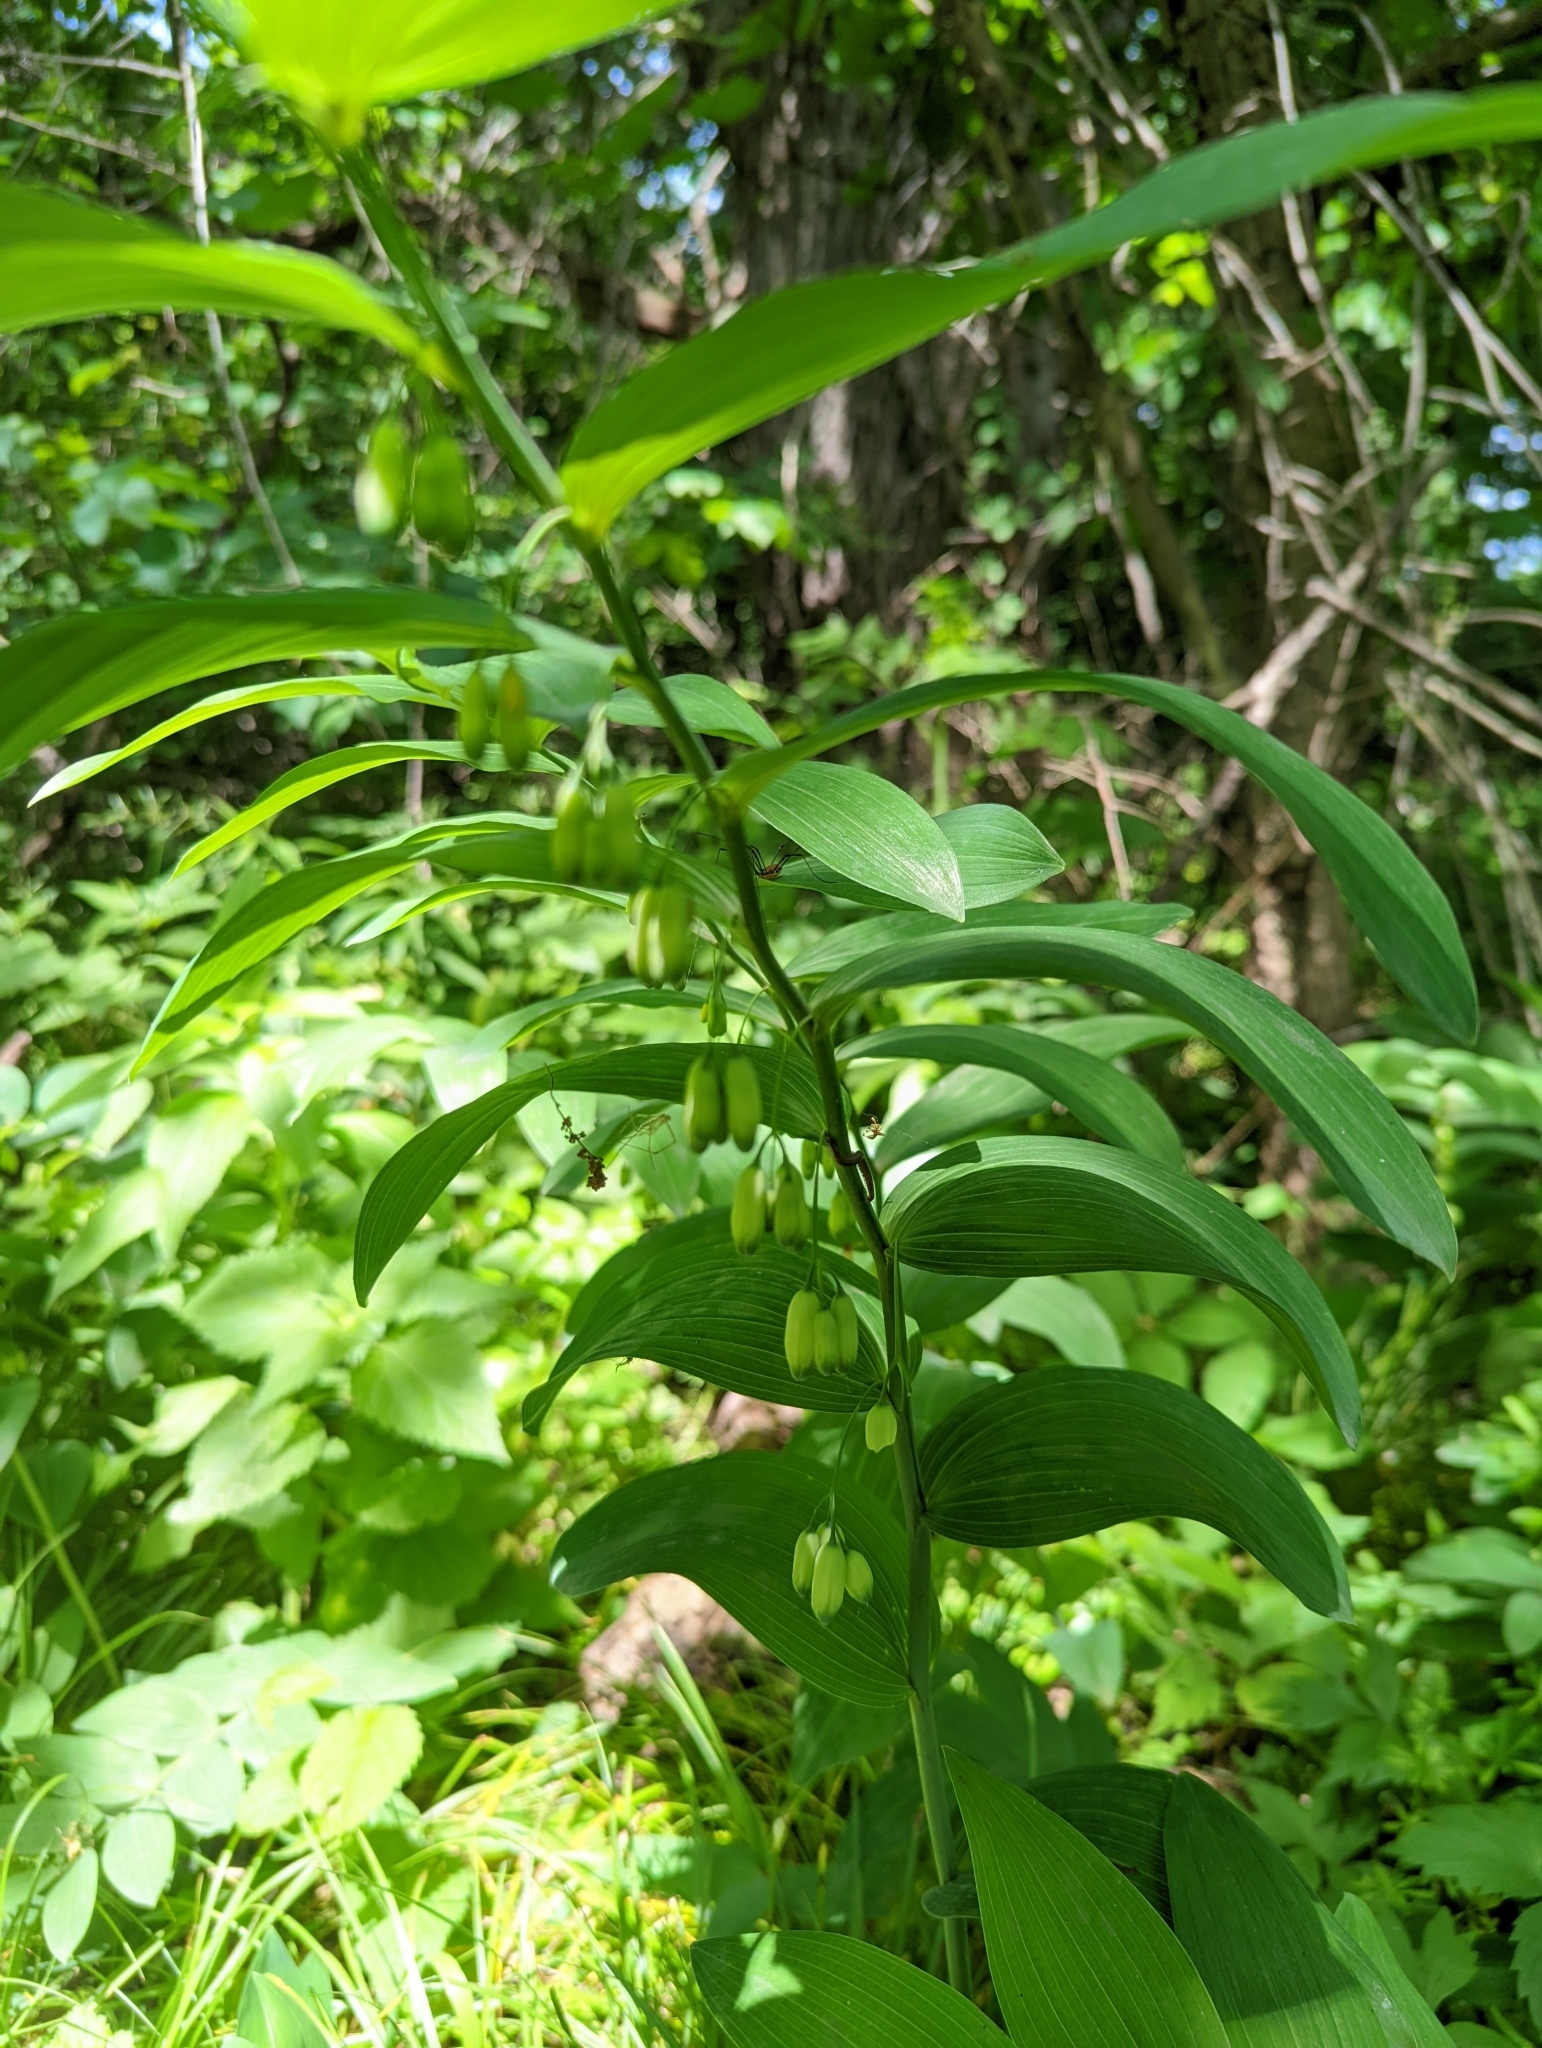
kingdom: Plantae
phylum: Tracheophyta
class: Liliopsida
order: Asparagales
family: Asparagaceae
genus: Polygonatum
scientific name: Polygonatum biflorum
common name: American solomon's-seal
